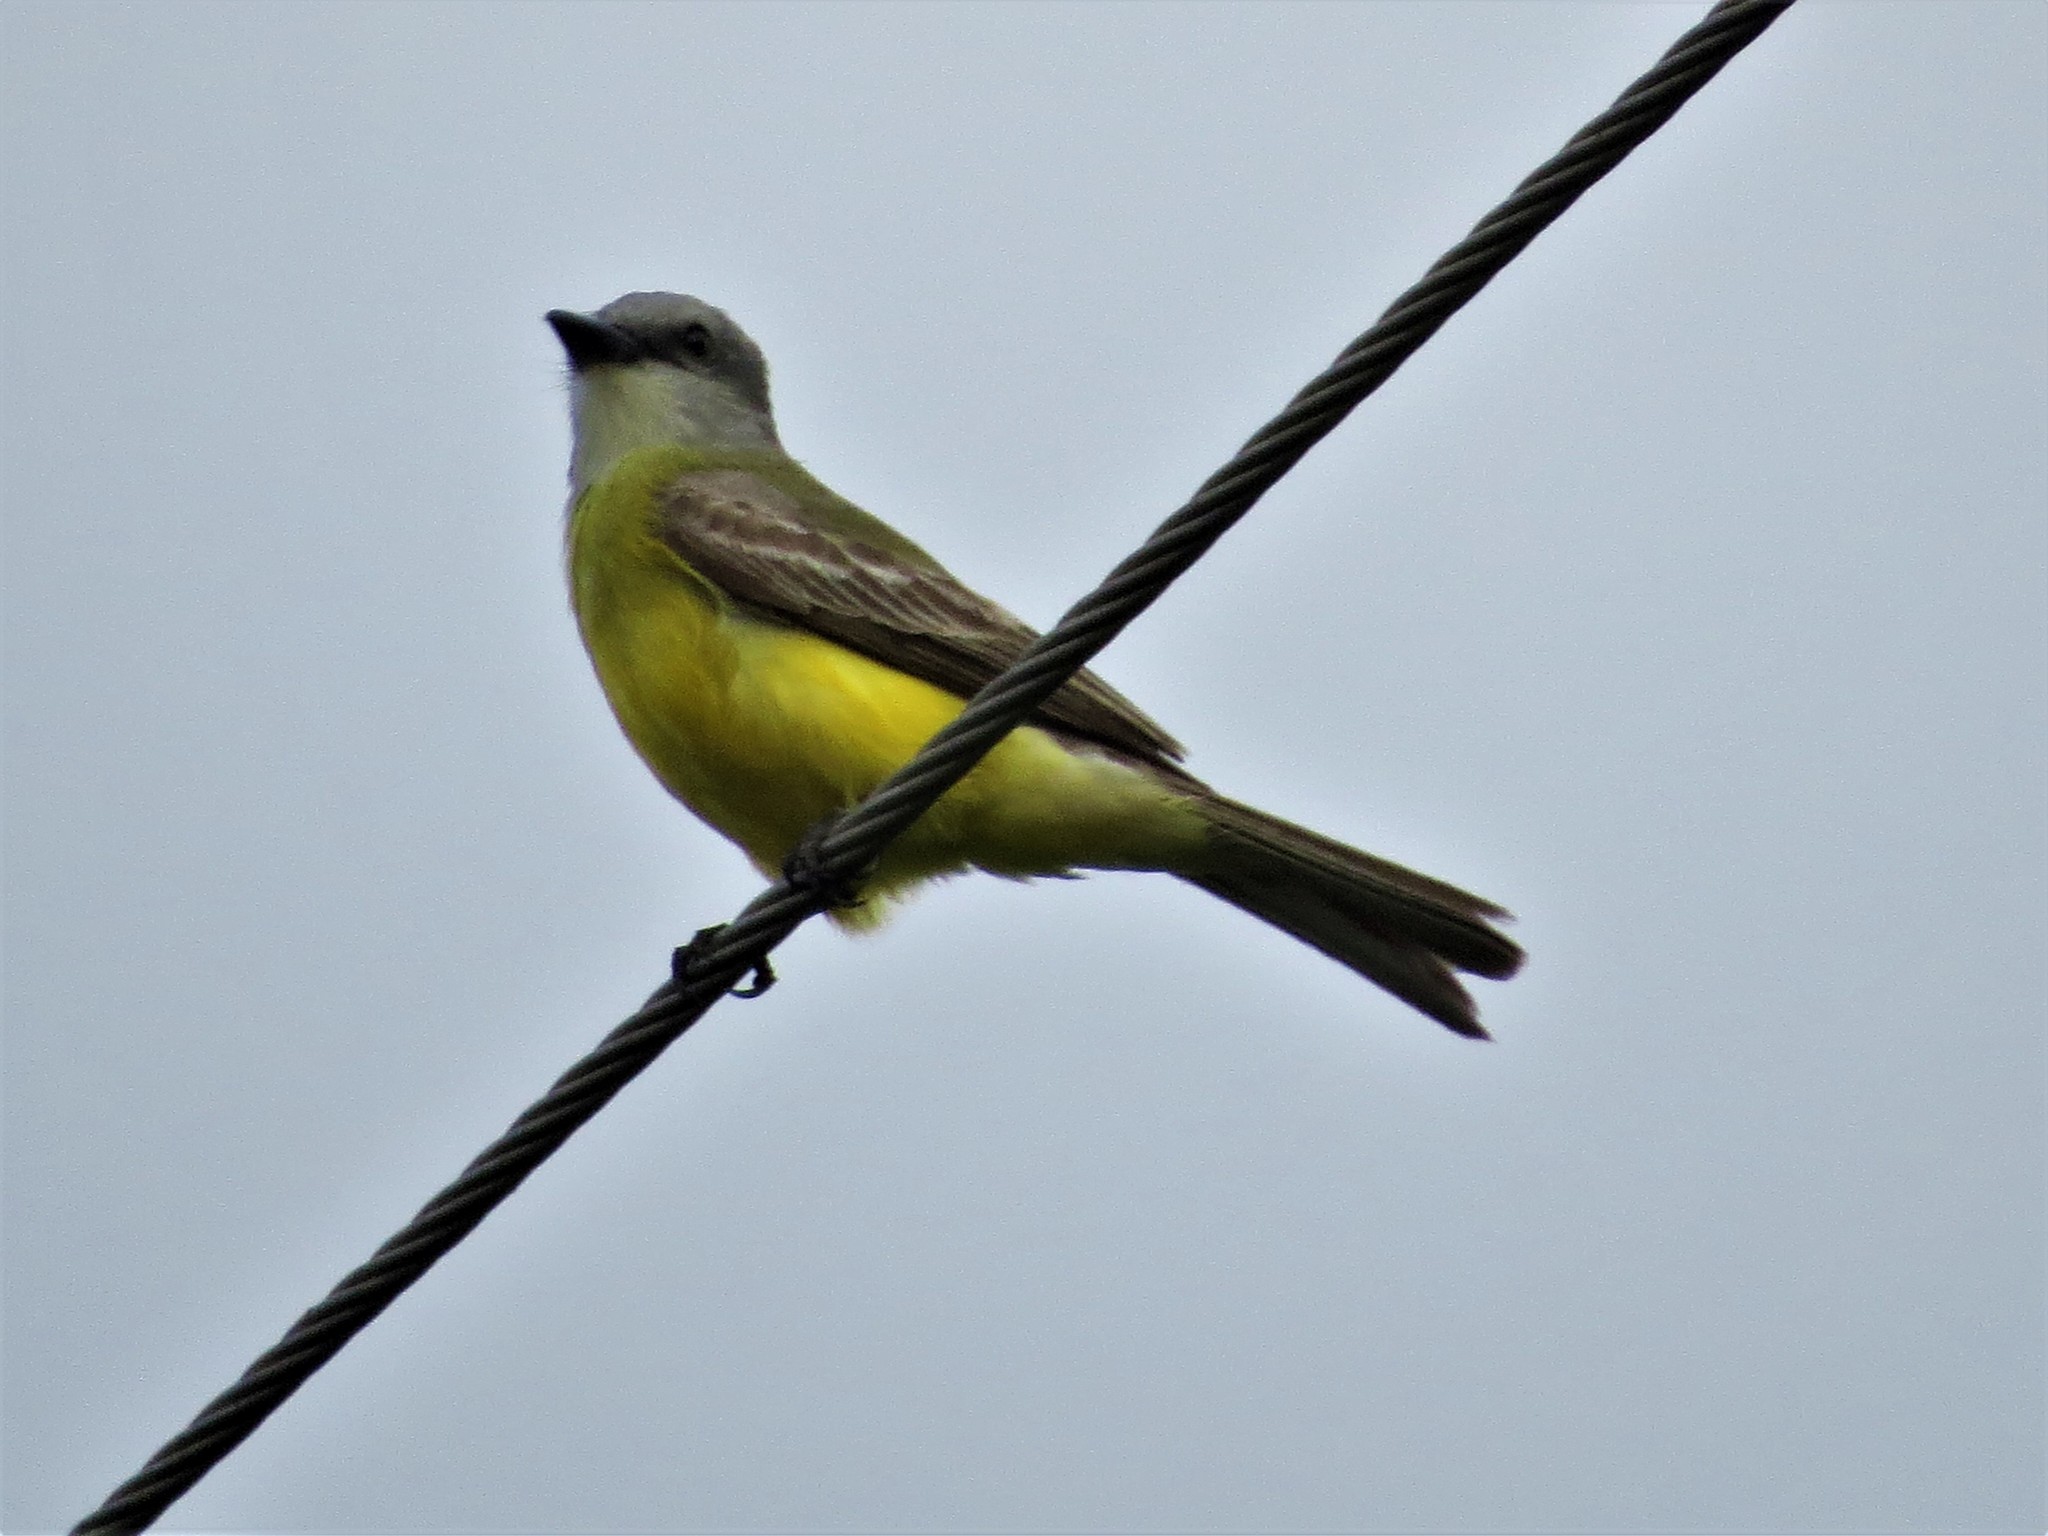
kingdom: Animalia
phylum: Chordata
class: Aves
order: Passeriformes
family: Tyrannidae
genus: Tyrannus
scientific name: Tyrannus couchii
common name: Couch's kingbird
